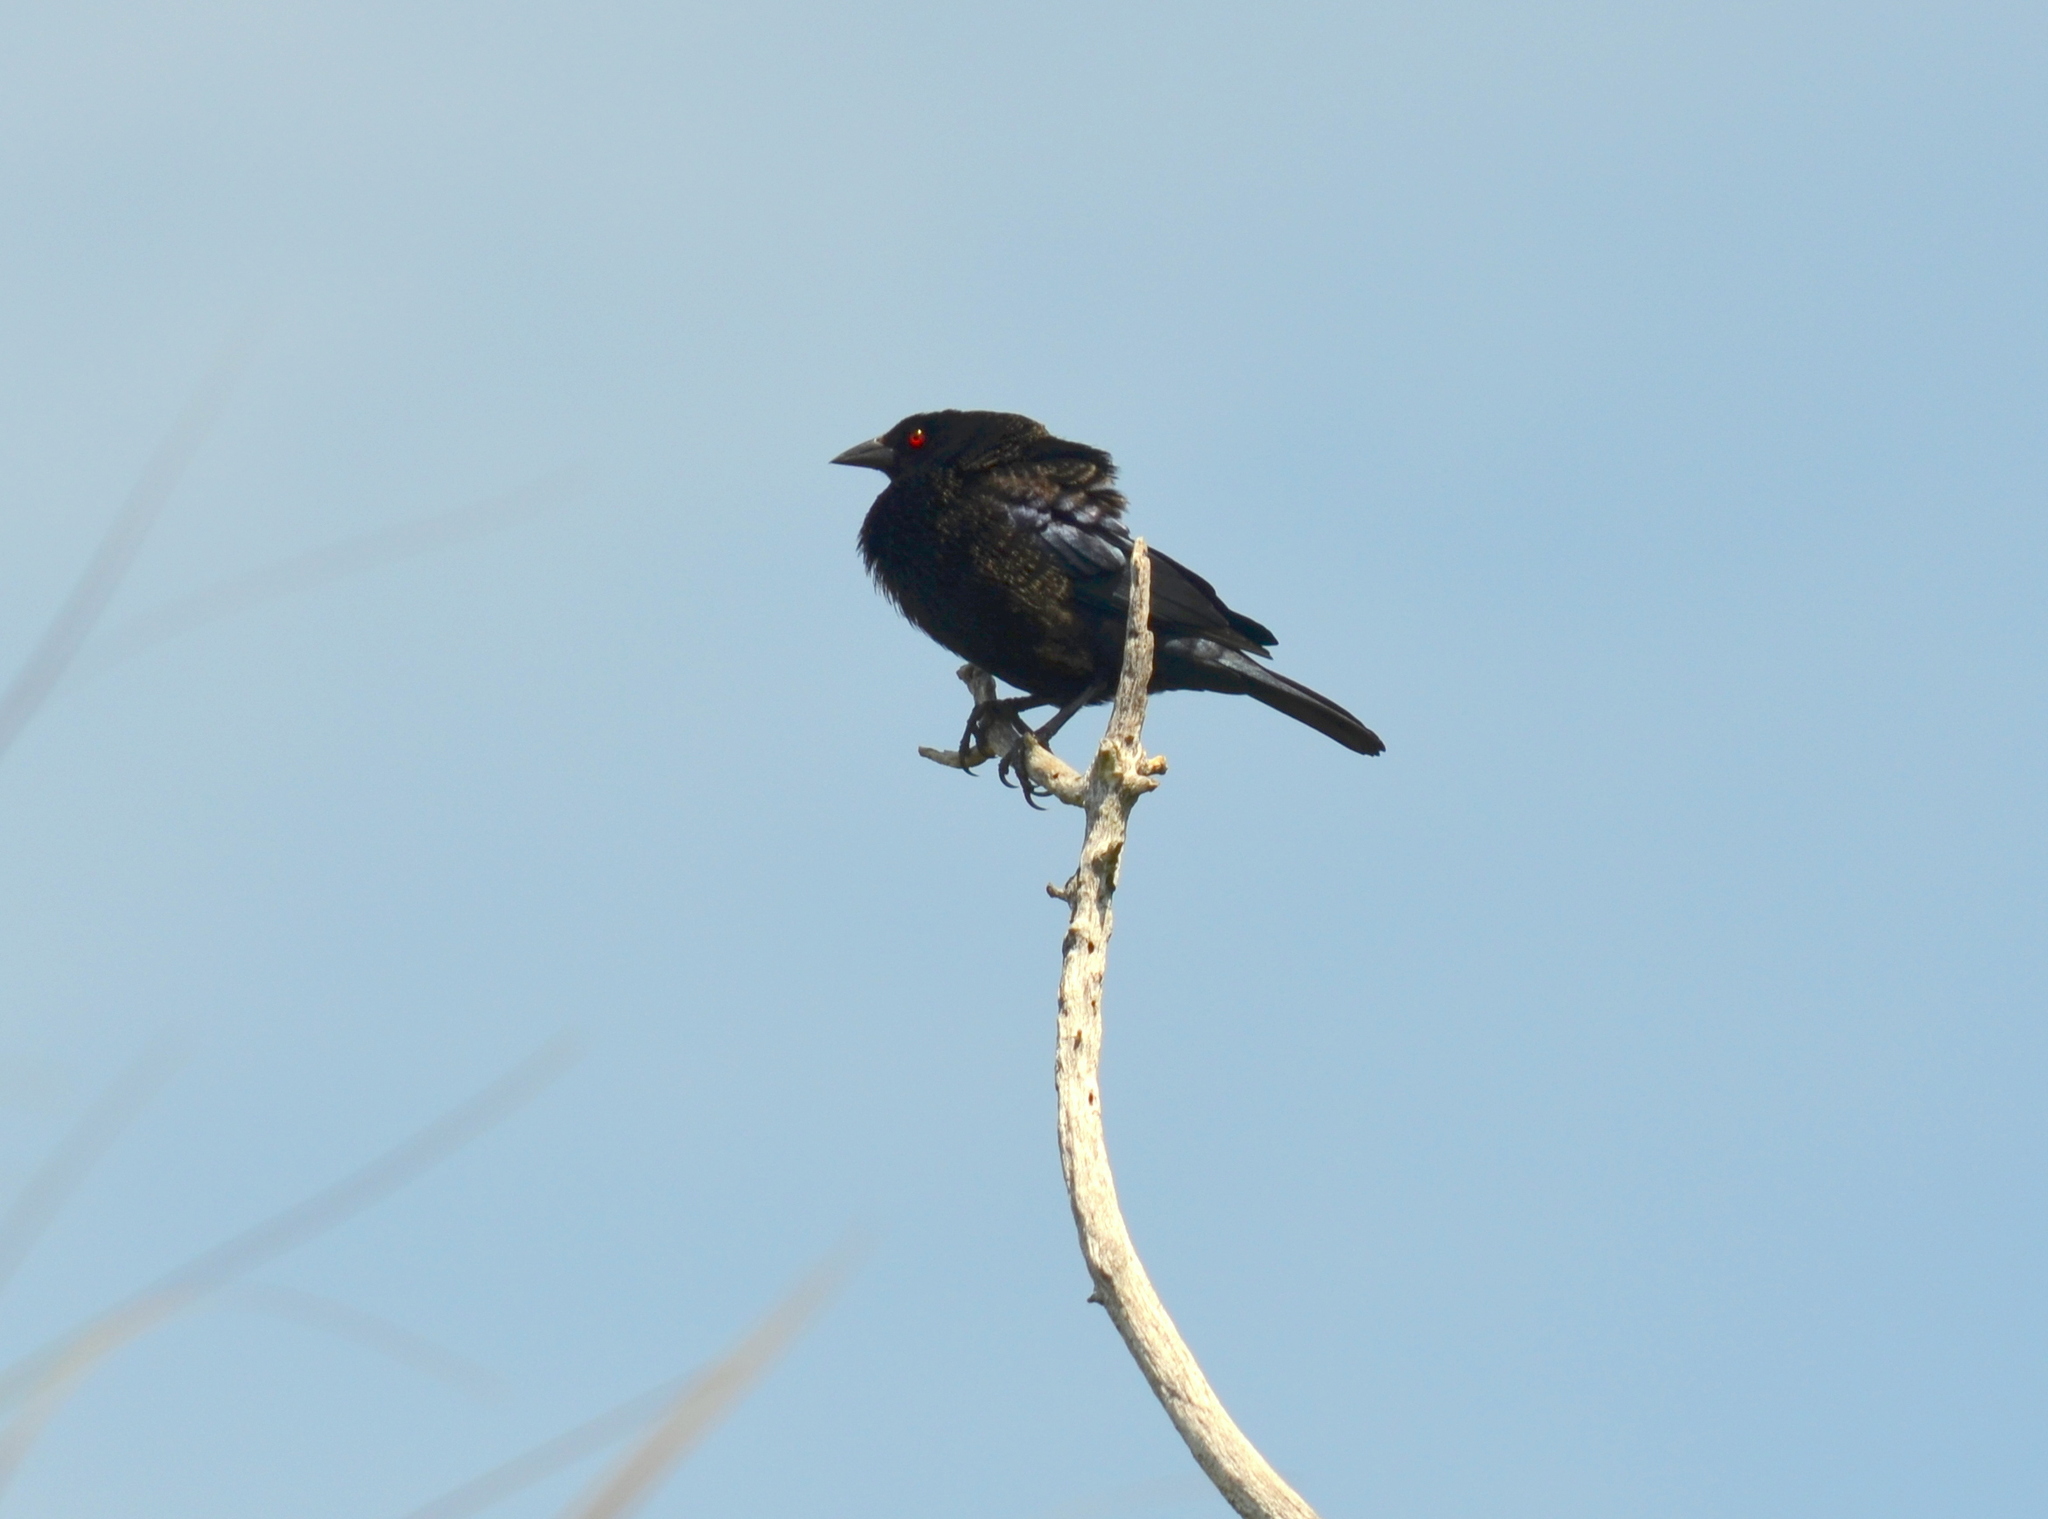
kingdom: Animalia
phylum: Chordata
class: Aves
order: Passeriformes
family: Icteridae
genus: Molothrus
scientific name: Molothrus aeneus
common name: Bronzed cowbird
